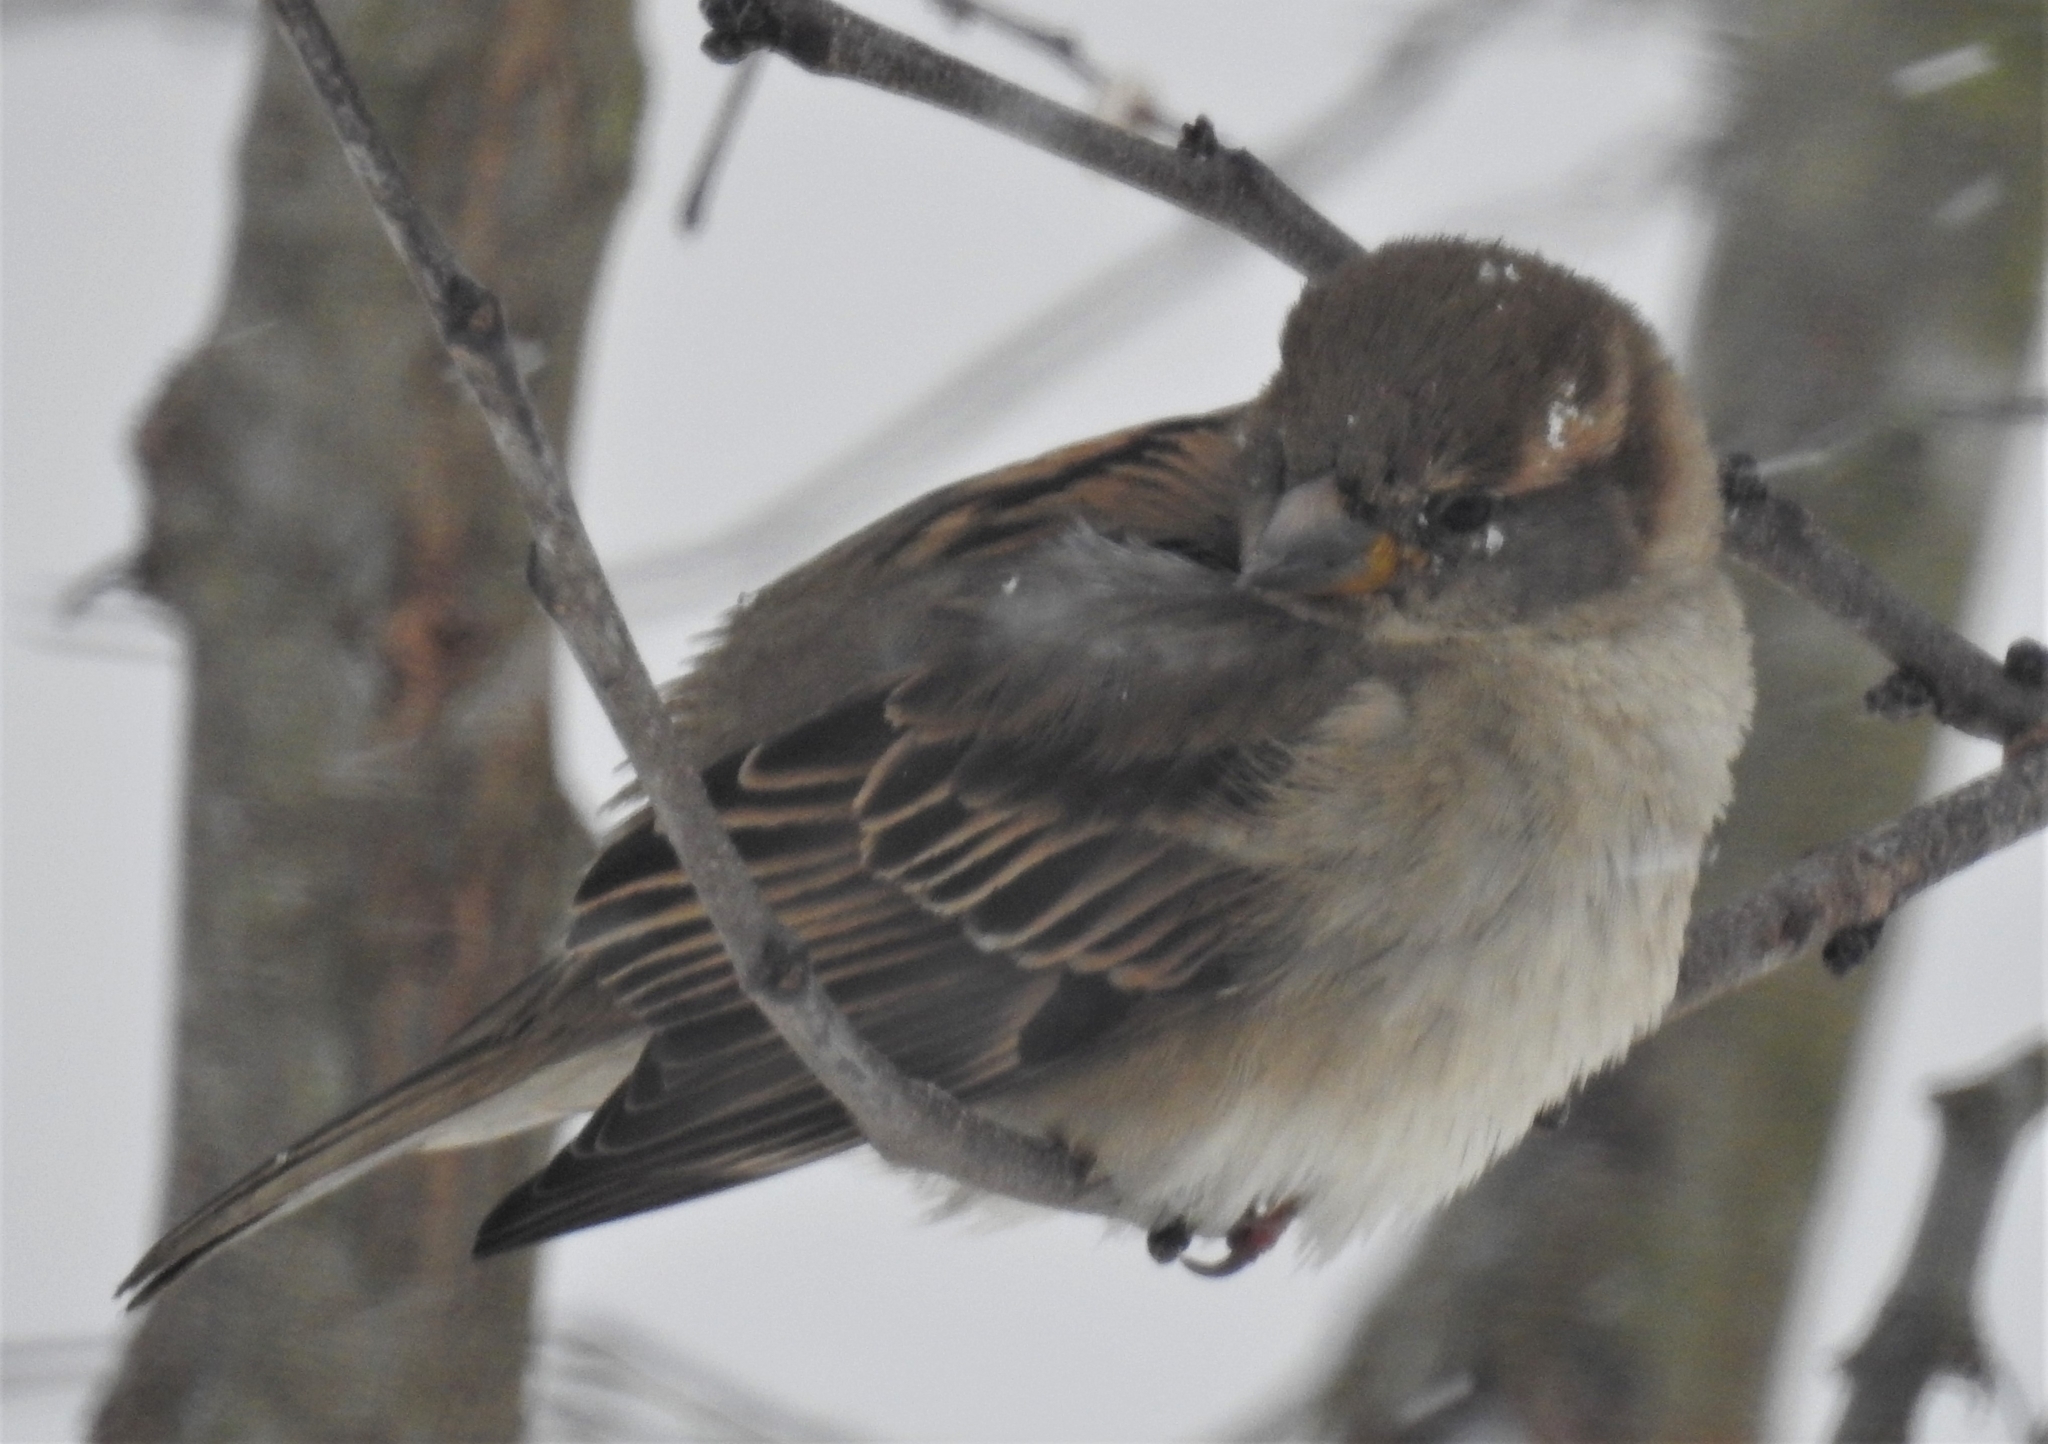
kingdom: Animalia
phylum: Chordata
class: Aves
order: Passeriformes
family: Passeridae
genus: Passer
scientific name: Passer domesticus
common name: House sparrow
